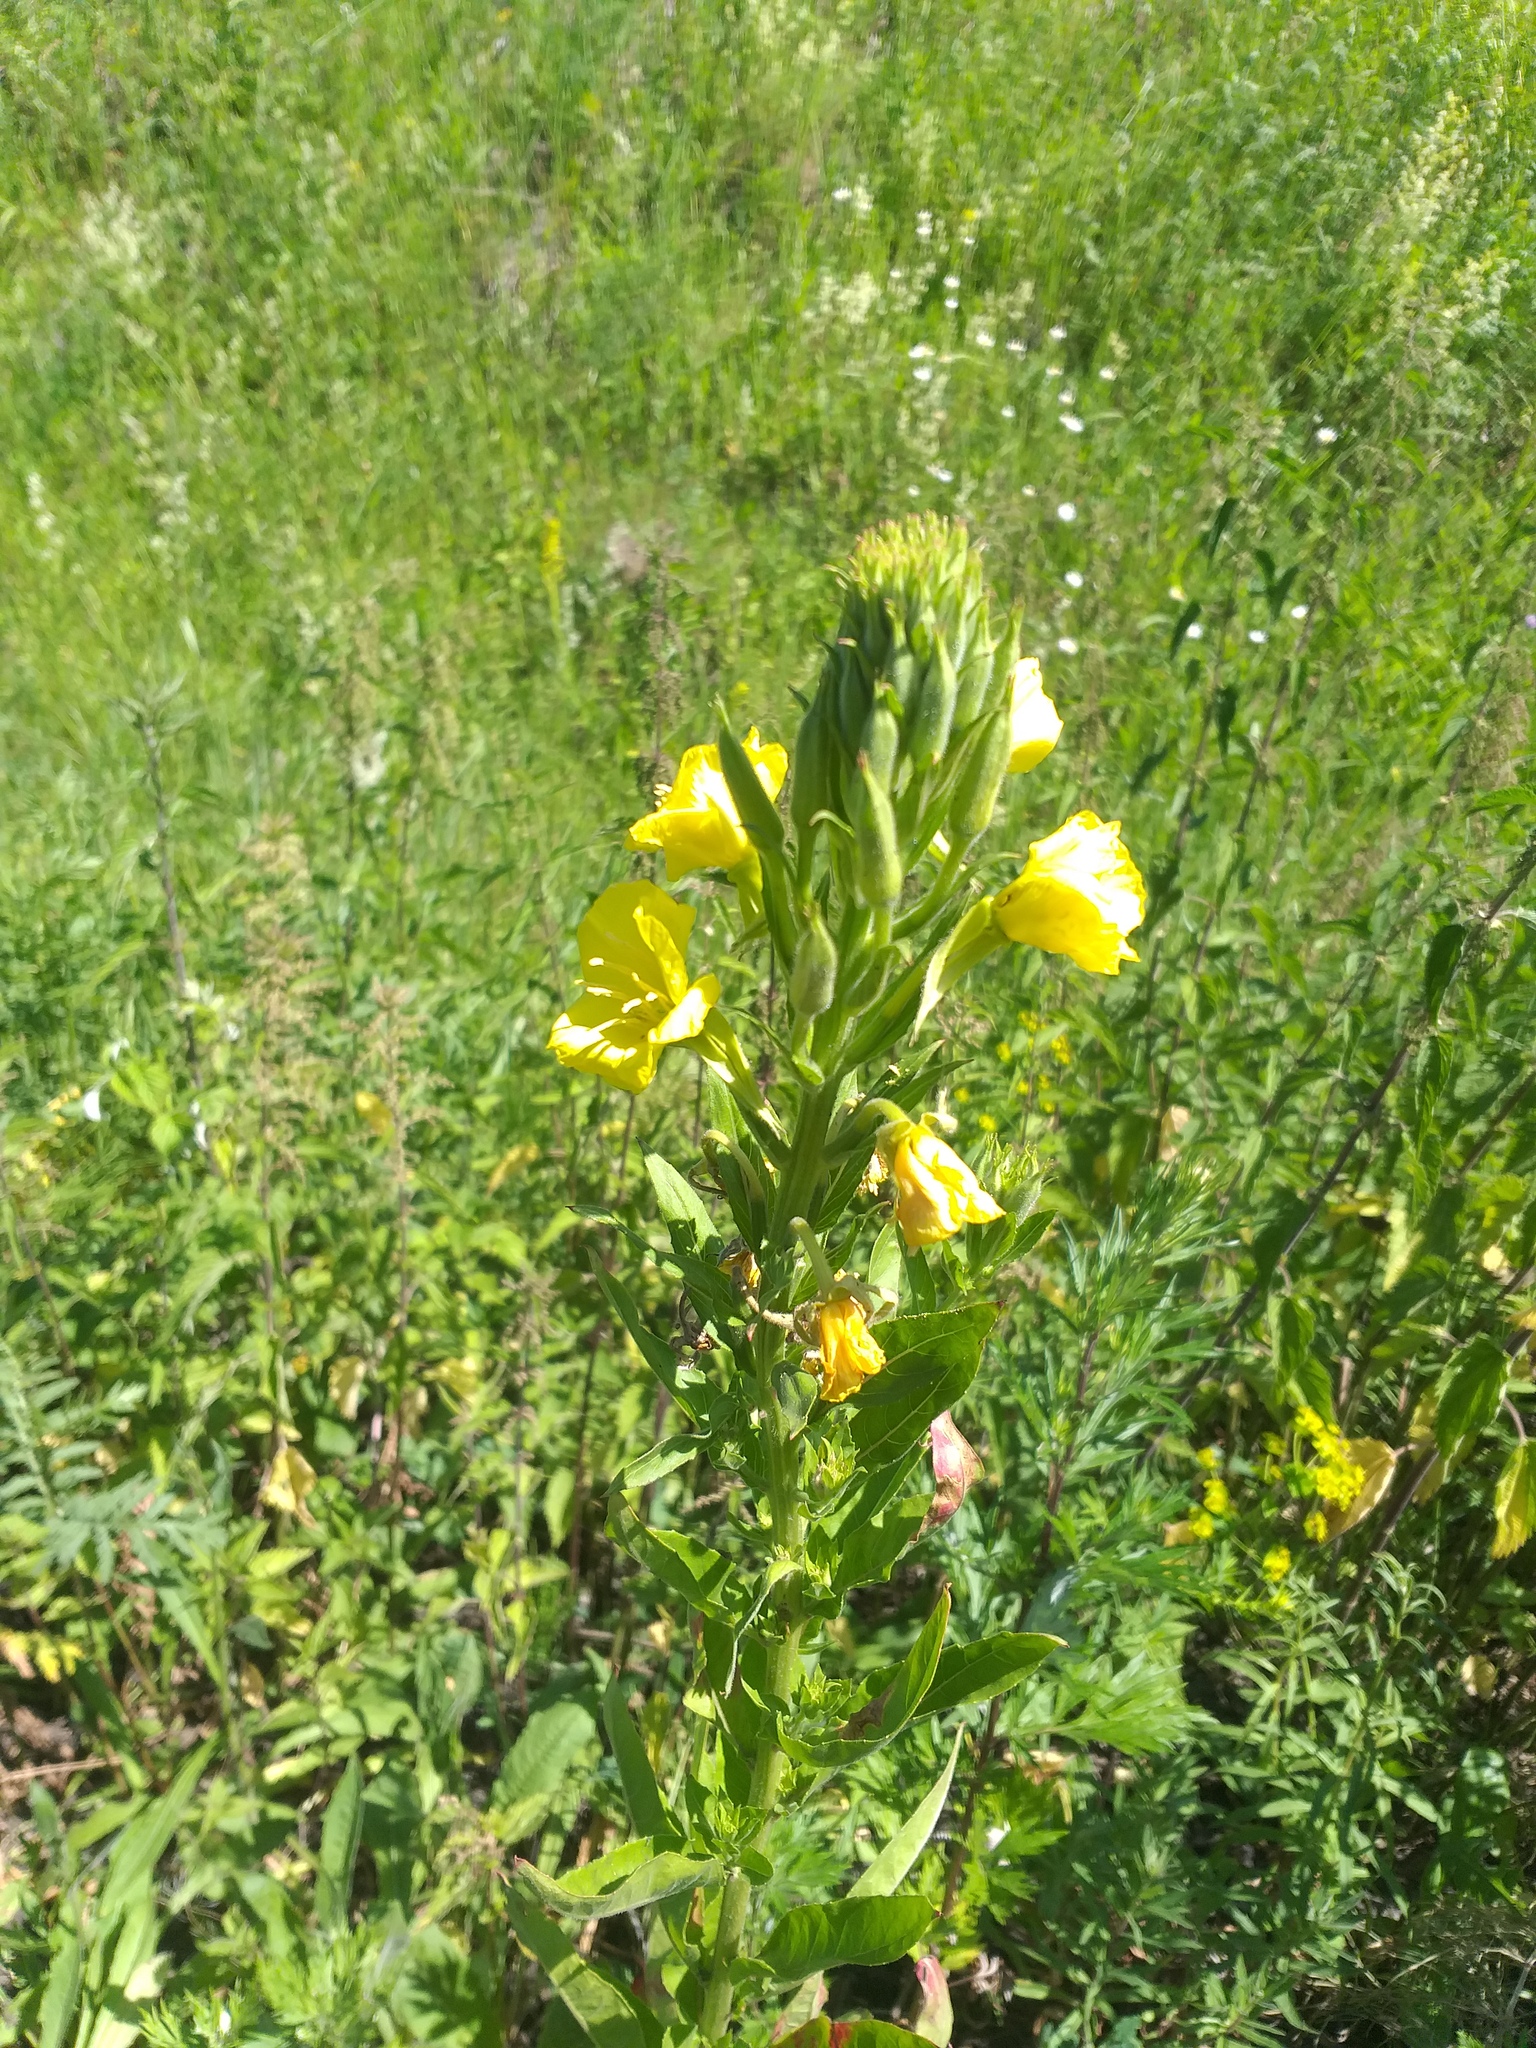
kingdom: Plantae
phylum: Tracheophyta
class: Magnoliopsida
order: Myrtales
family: Onagraceae
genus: Oenothera
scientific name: Oenothera biennis
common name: Common evening-primrose
